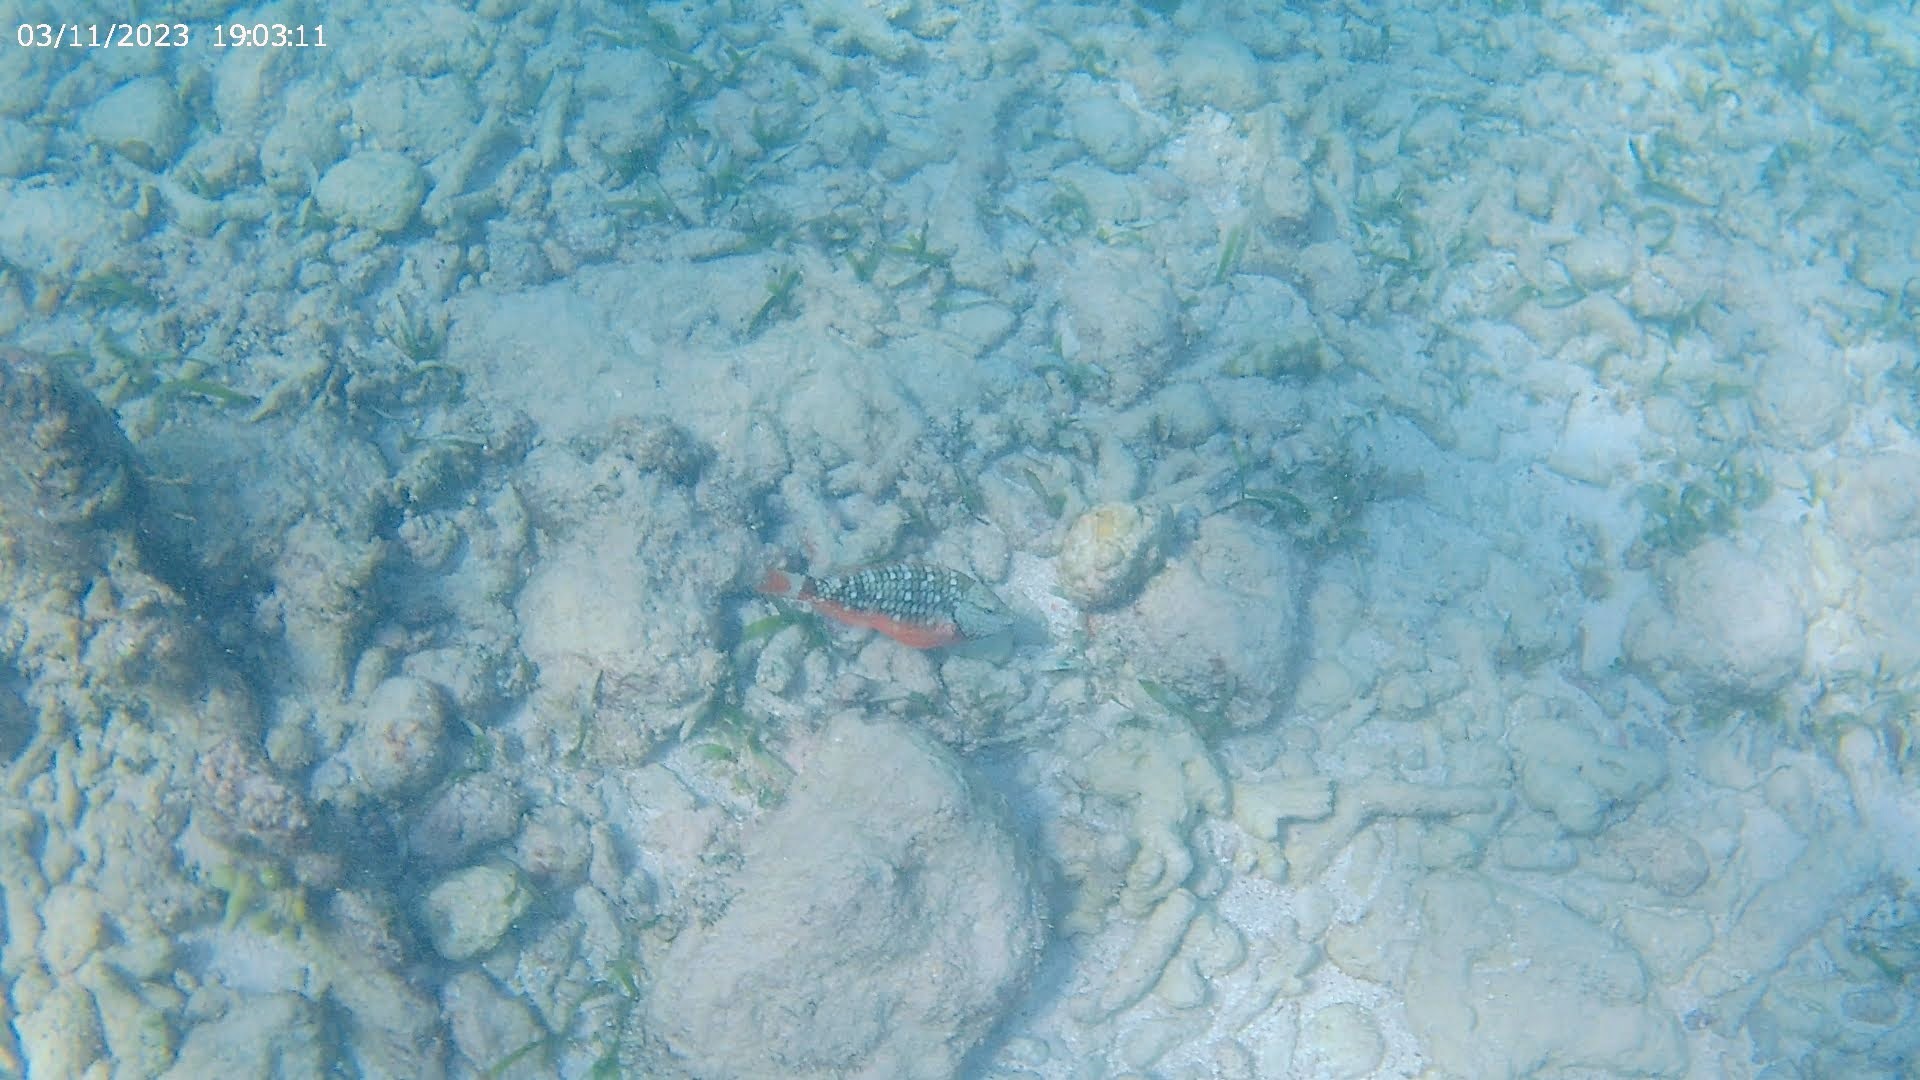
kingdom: Animalia
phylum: Chordata
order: Perciformes
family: Scaridae
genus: Sparisoma
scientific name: Sparisoma viride
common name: Stoplight parrotfish
